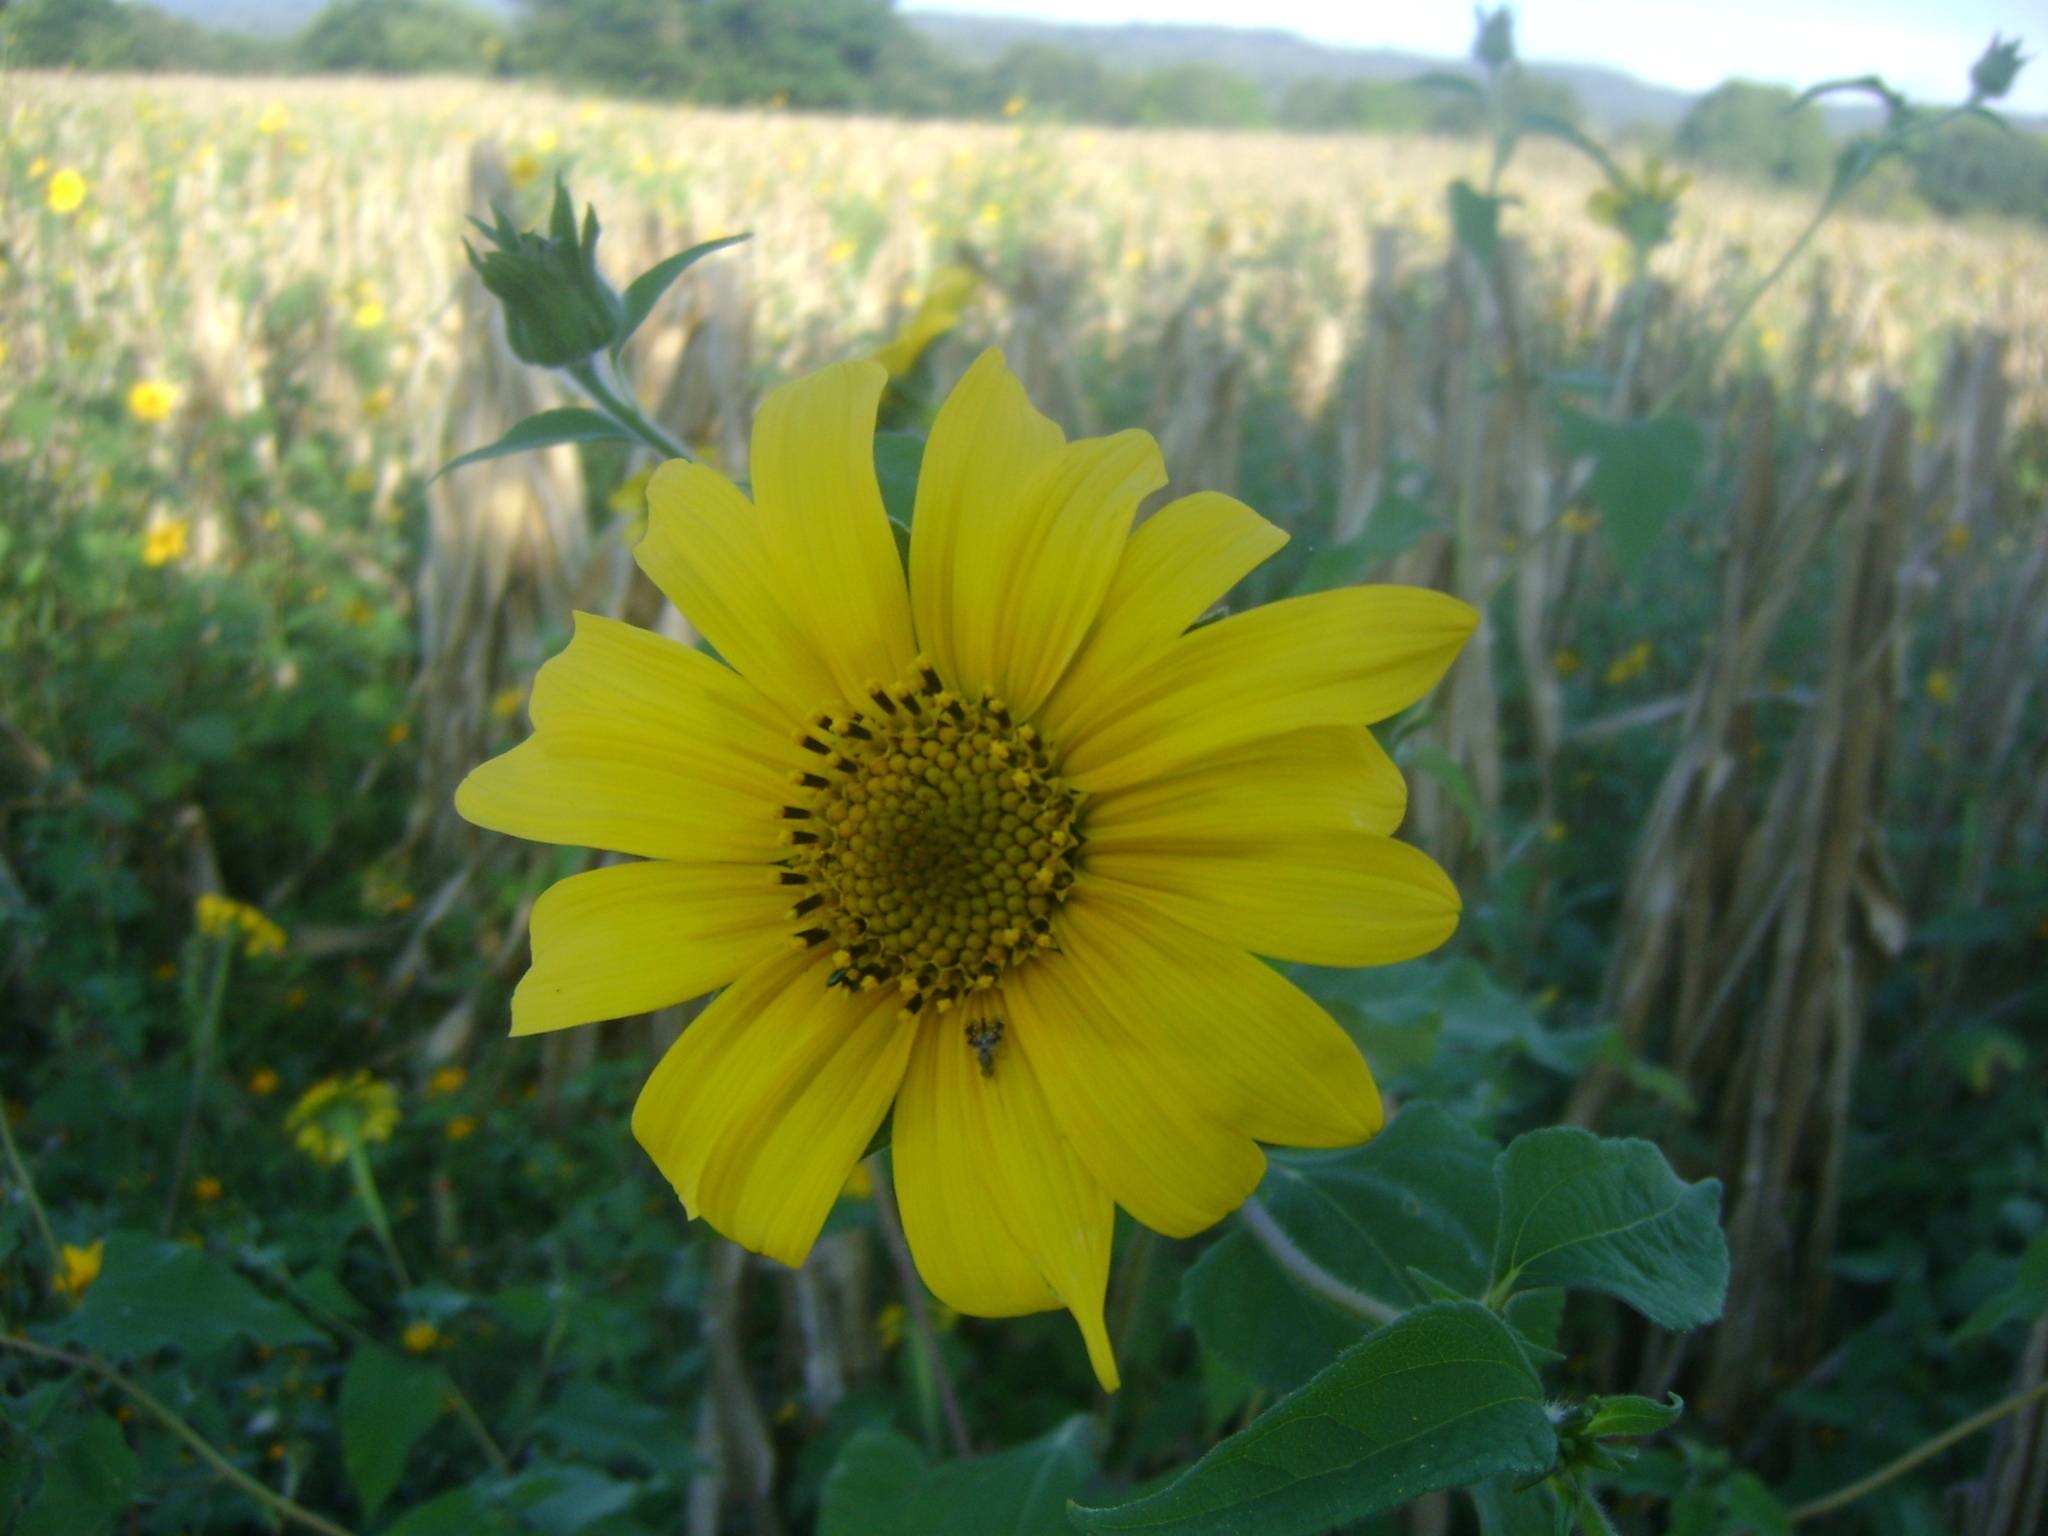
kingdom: Plantae
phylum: Tracheophyta
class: Magnoliopsida
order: Asterales
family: Asteraceae
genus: Tithonia
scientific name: Tithonia tubaeformis
